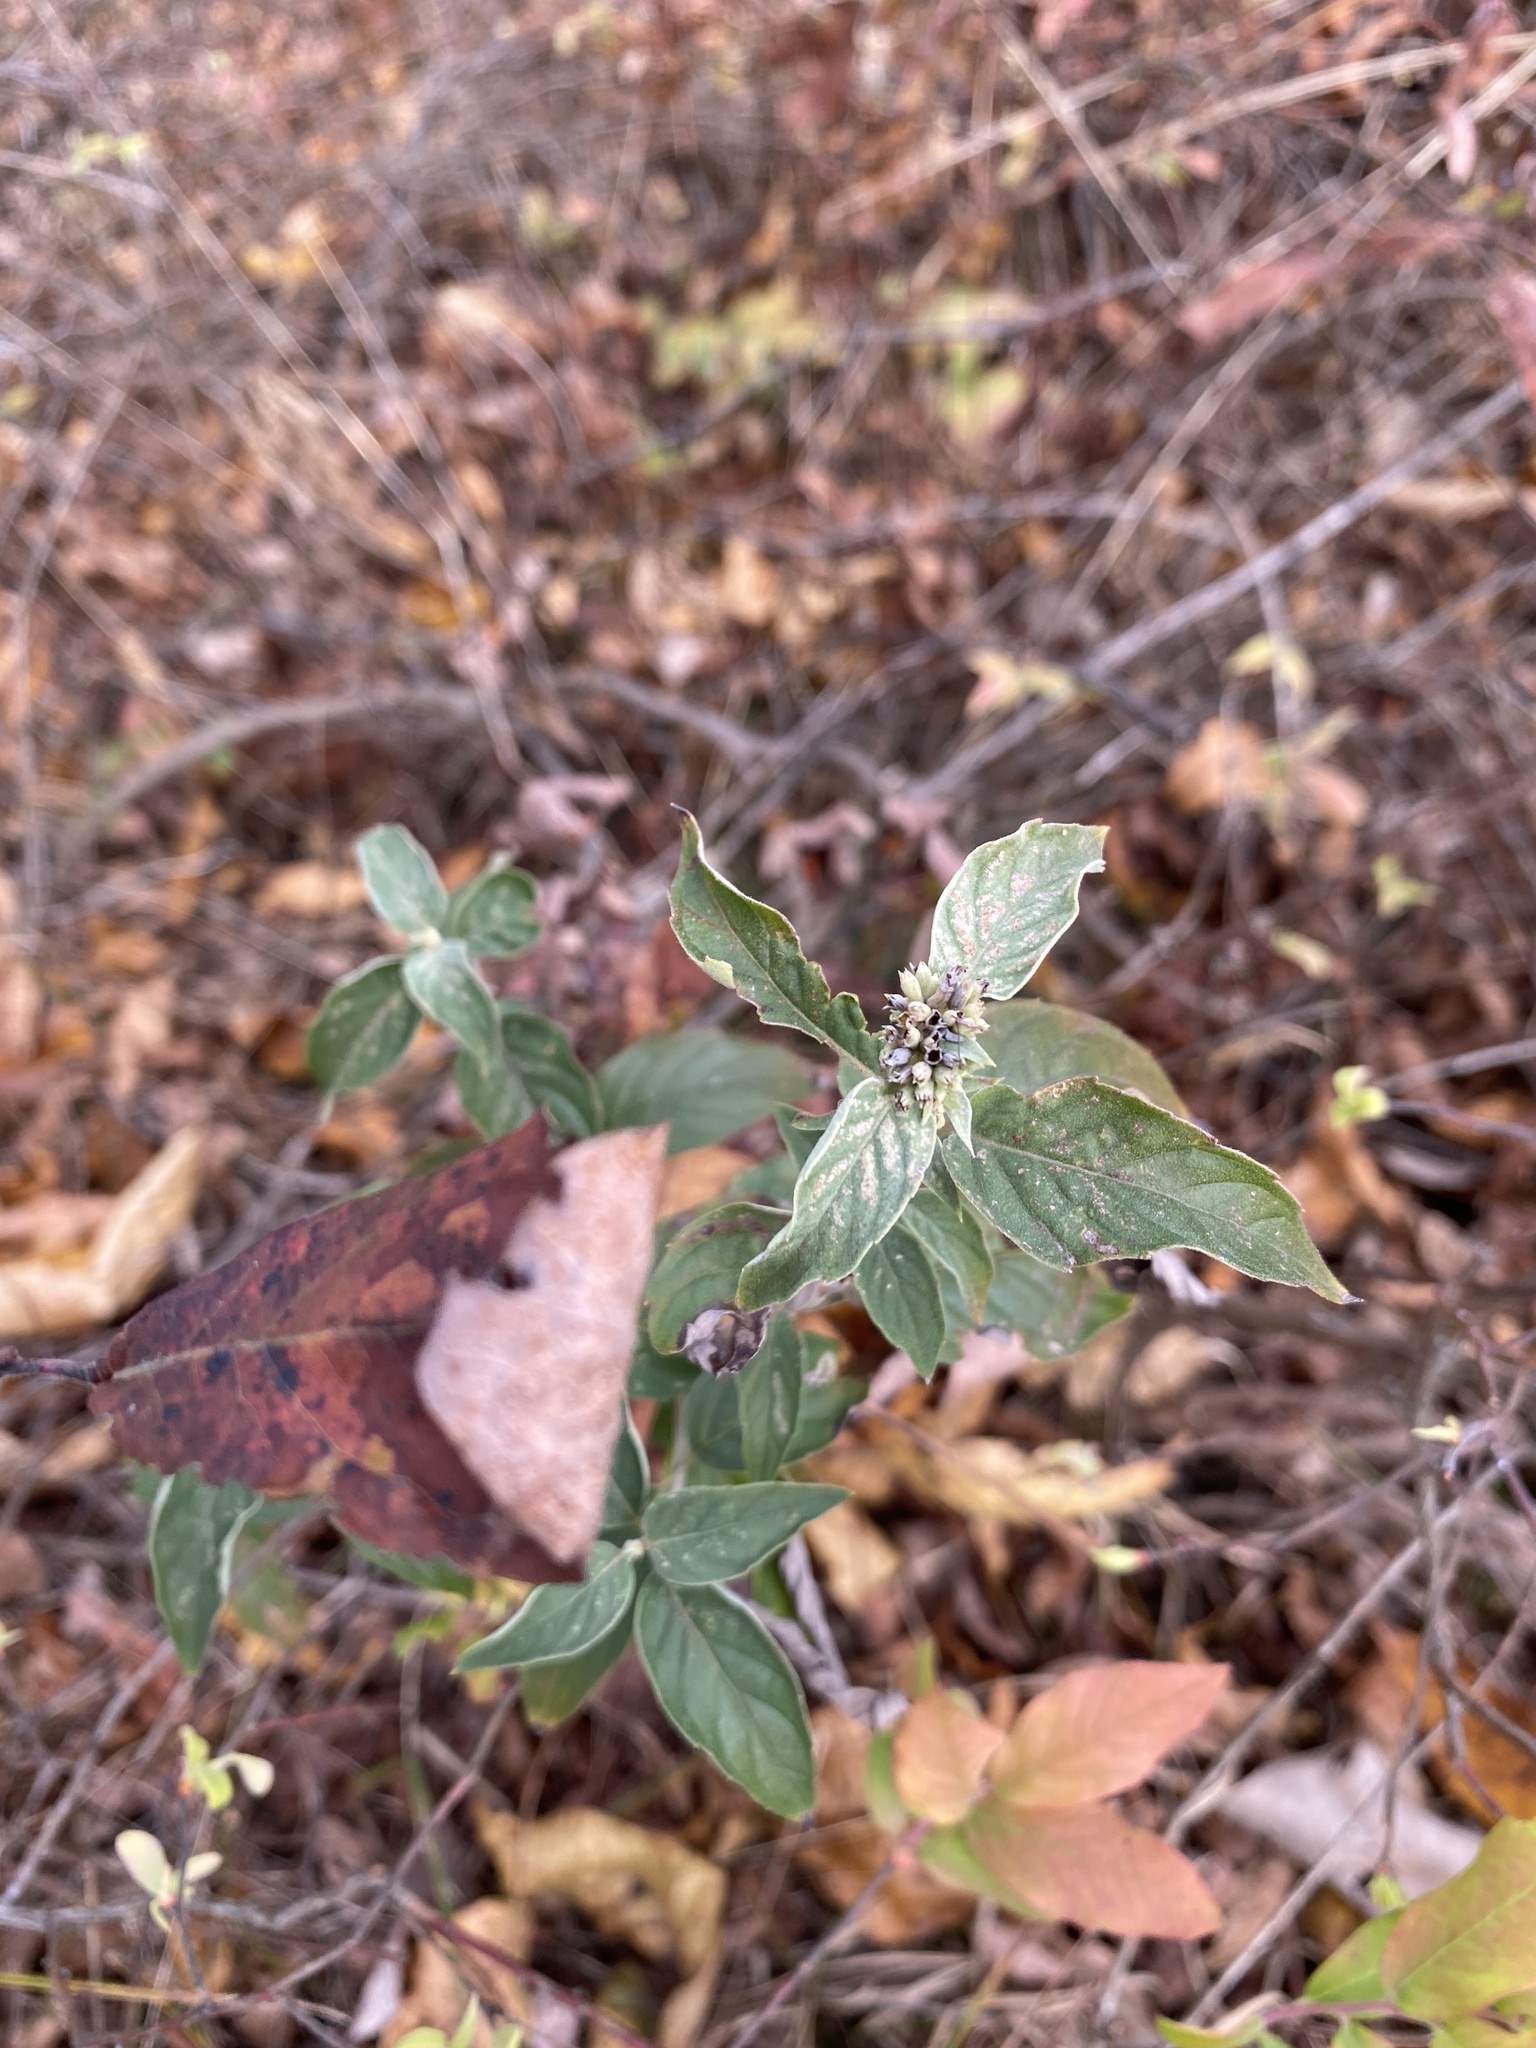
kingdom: Plantae
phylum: Tracheophyta
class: Magnoliopsida
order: Lamiales
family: Lamiaceae
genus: Pycnanthemum
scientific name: Pycnanthemum incanum
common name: Hoary mountain-mint
